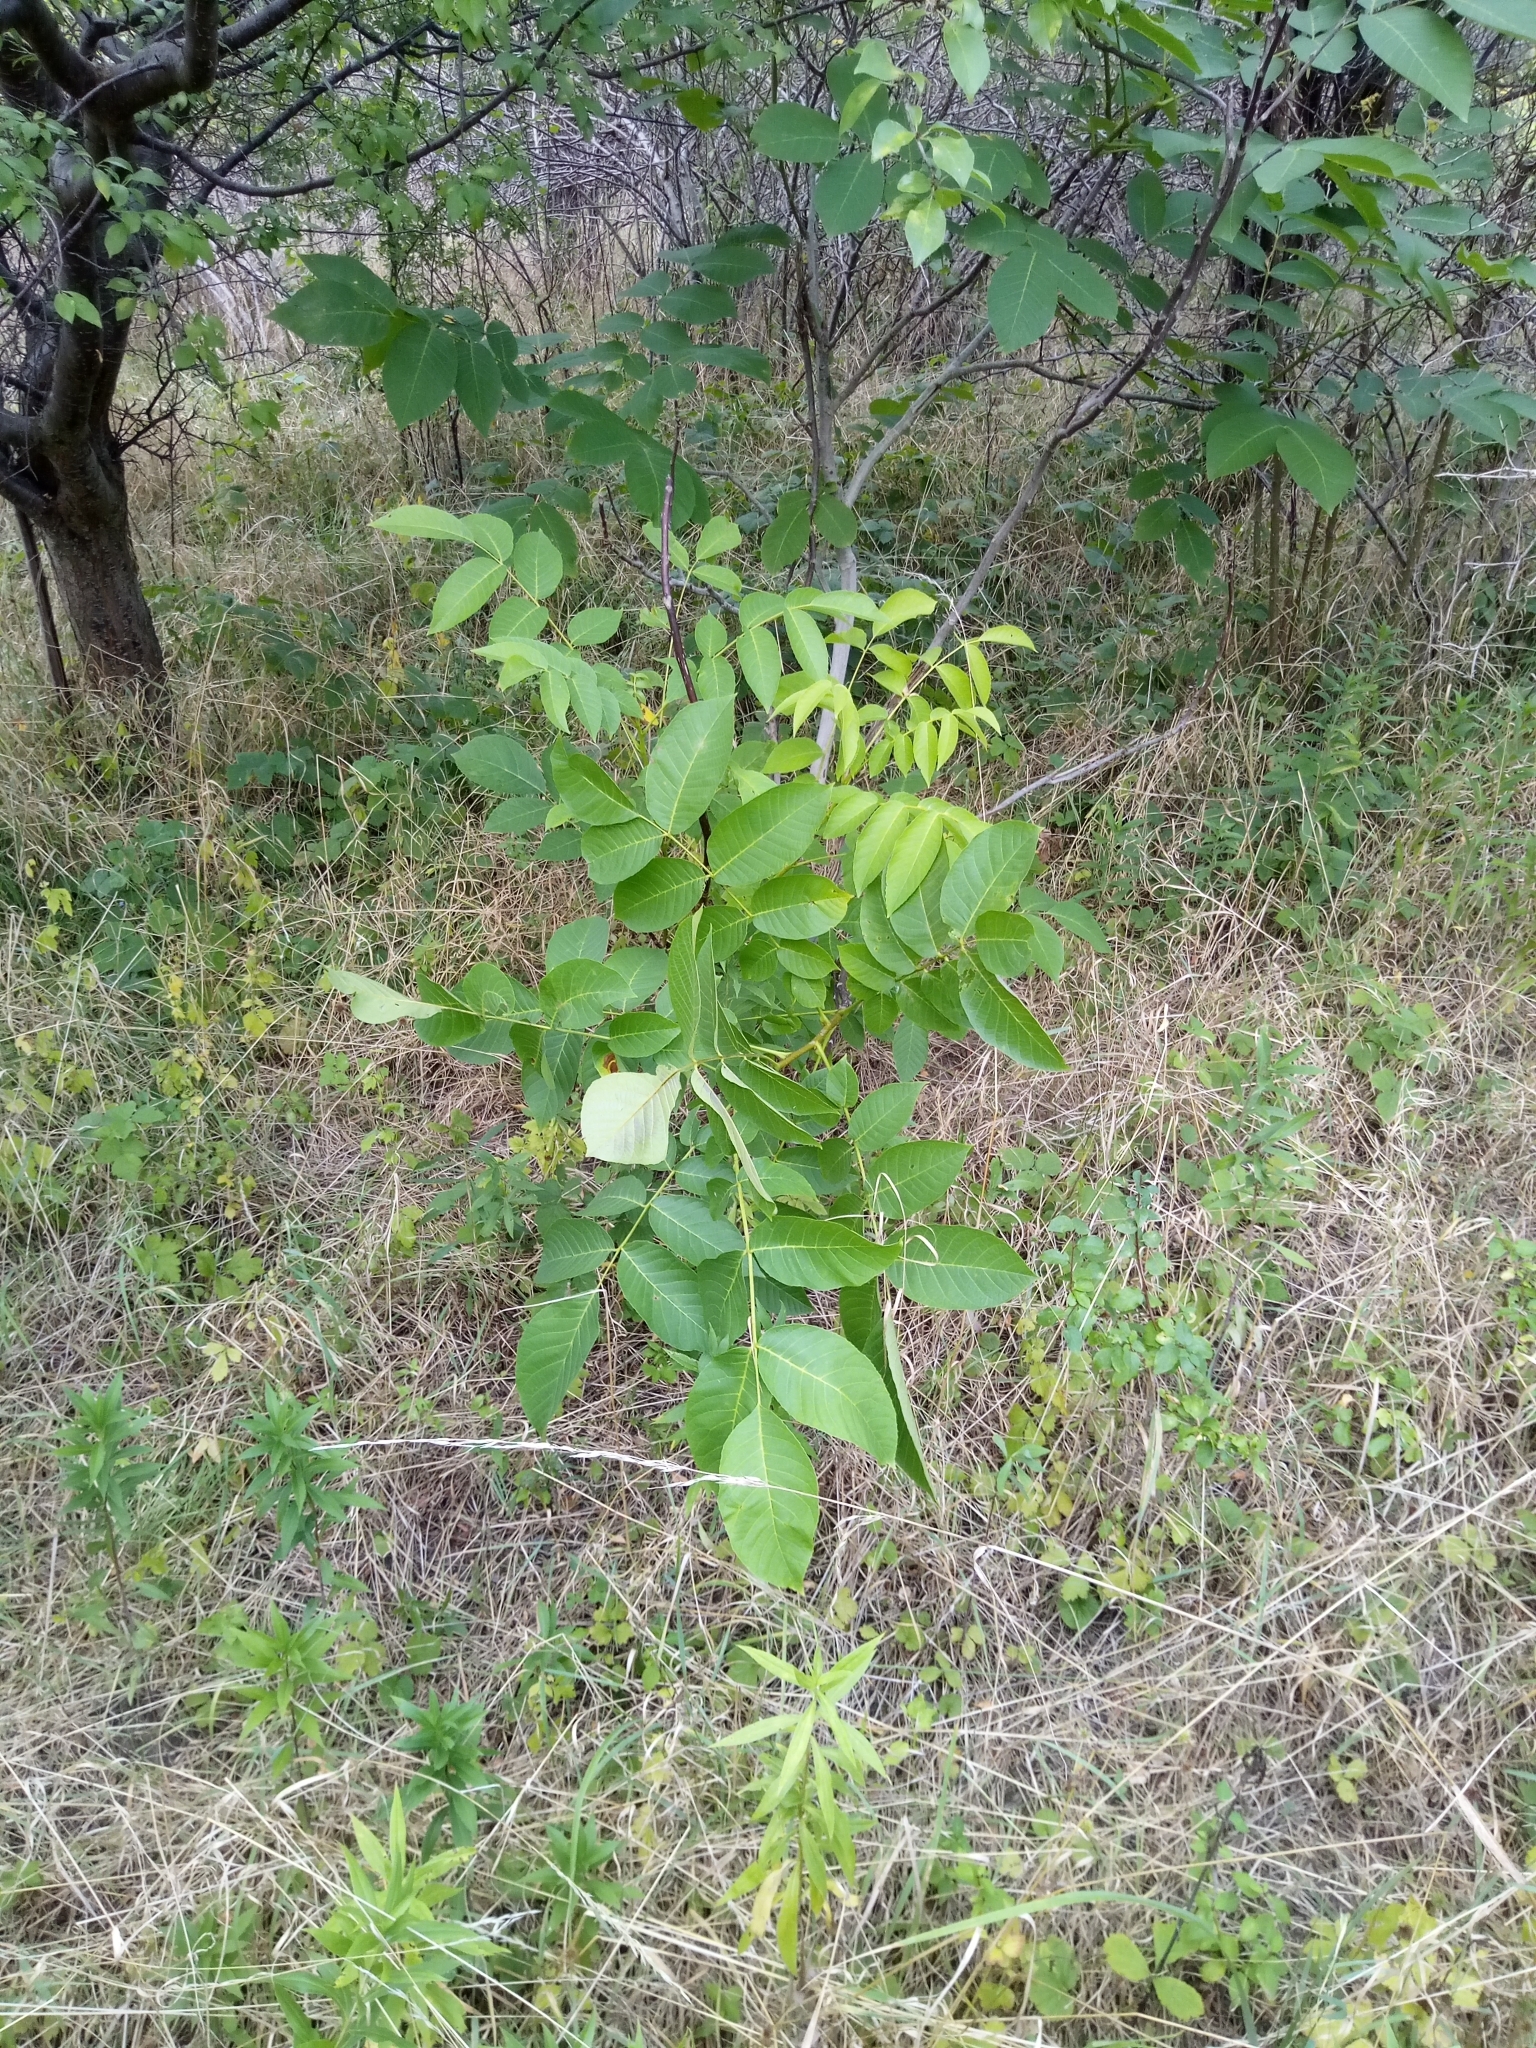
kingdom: Plantae
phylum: Tracheophyta
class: Magnoliopsida
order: Fagales
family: Juglandaceae
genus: Juglans
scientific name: Juglans regia
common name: Walnut
